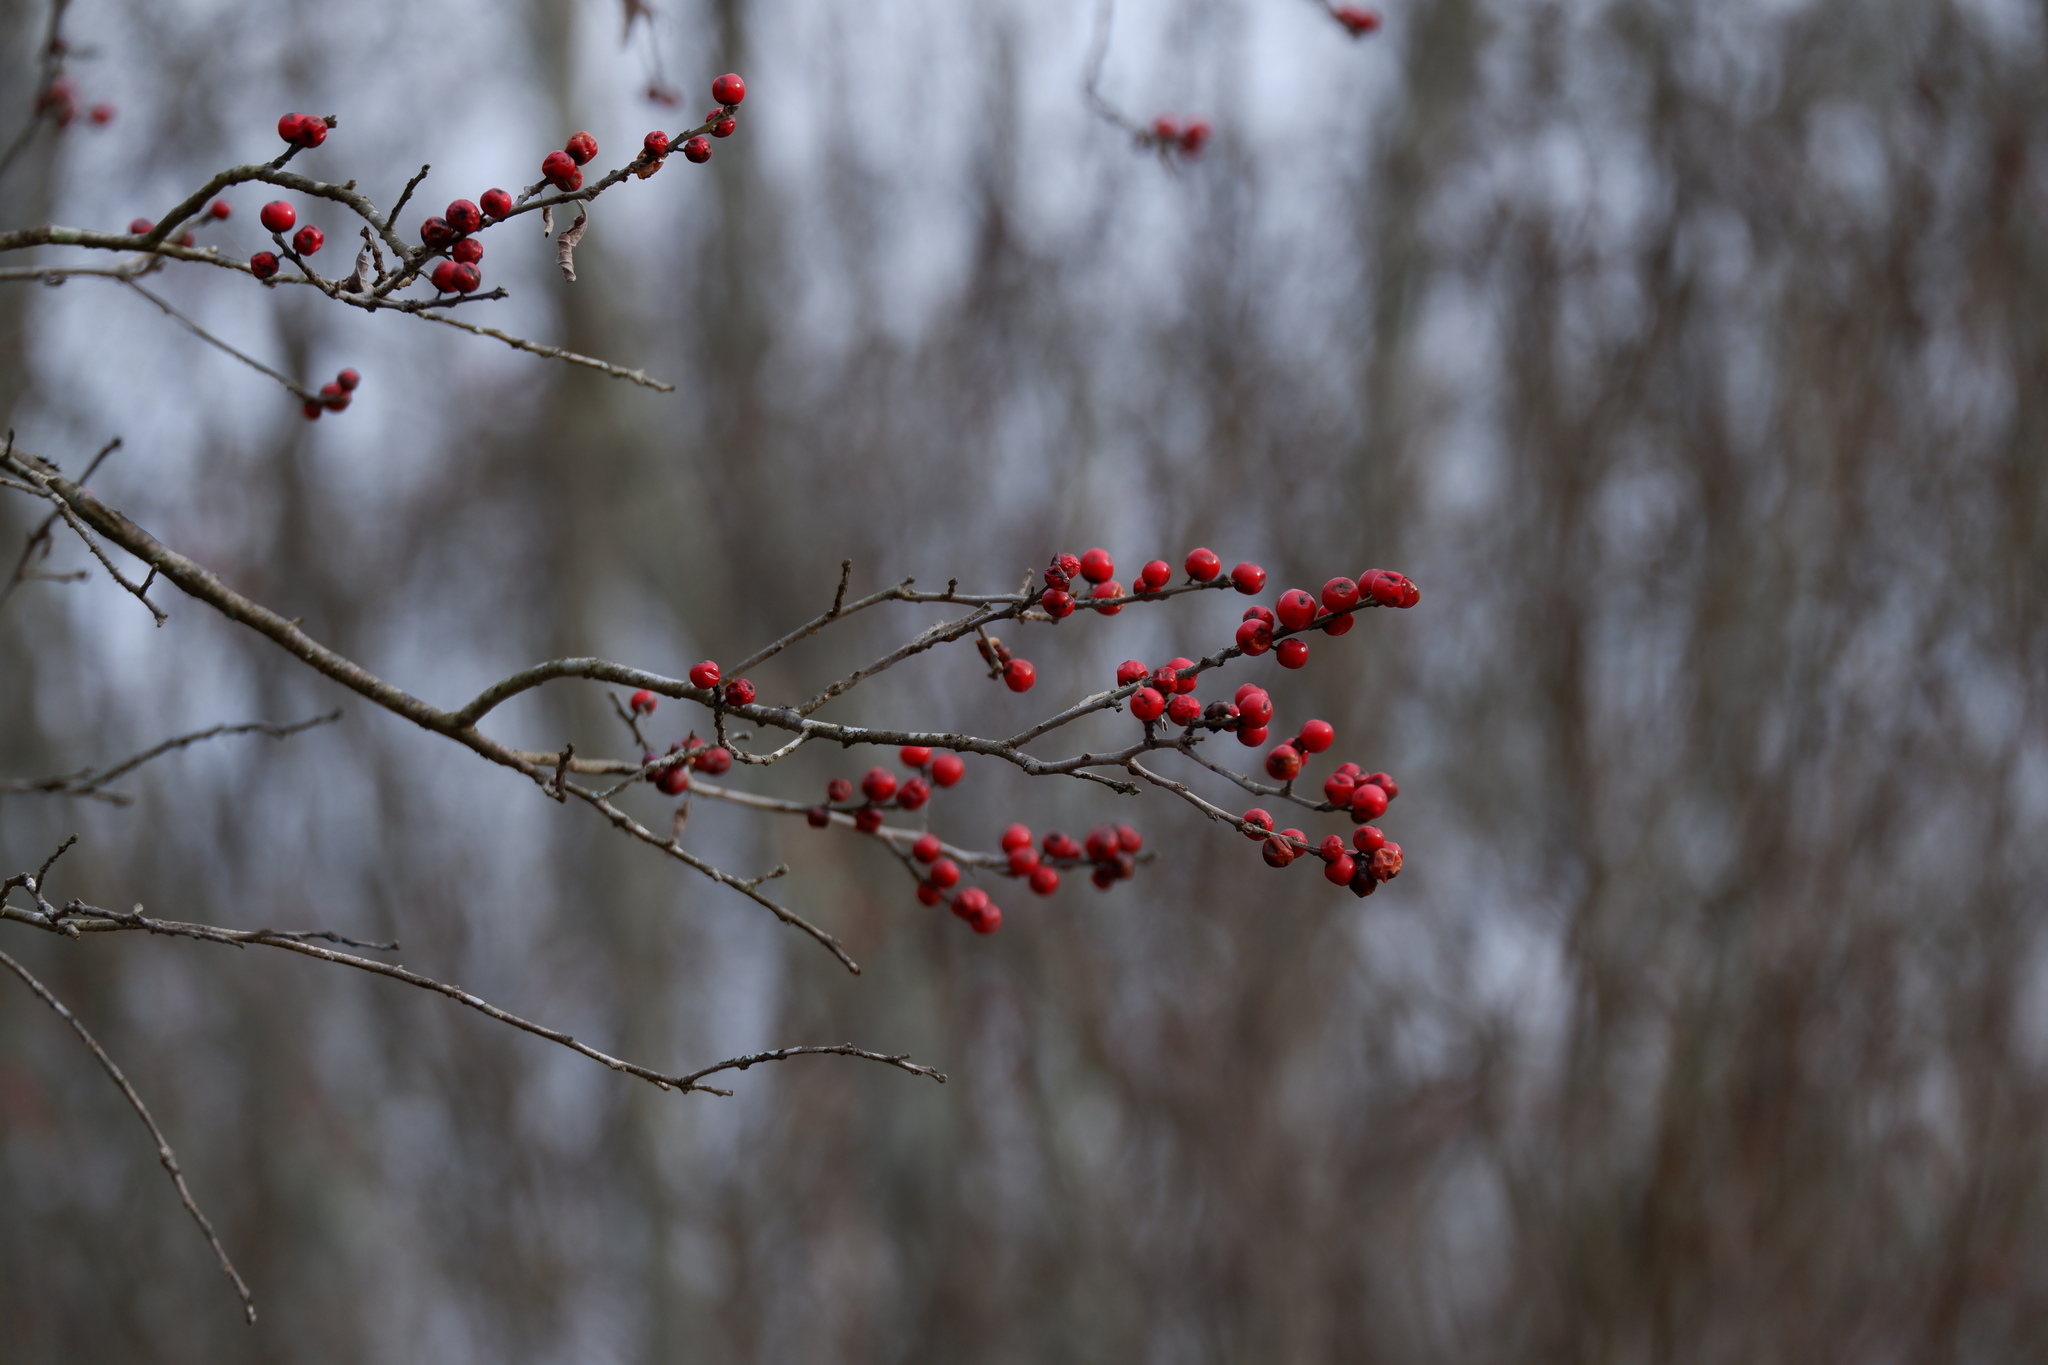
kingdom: Plantae
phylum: Tracheophyta
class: Magnoliopsida
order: Aquifoliales
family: Aquifoliaceae
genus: Ilex
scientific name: Ilex verticillata
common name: Virginia winterberry
